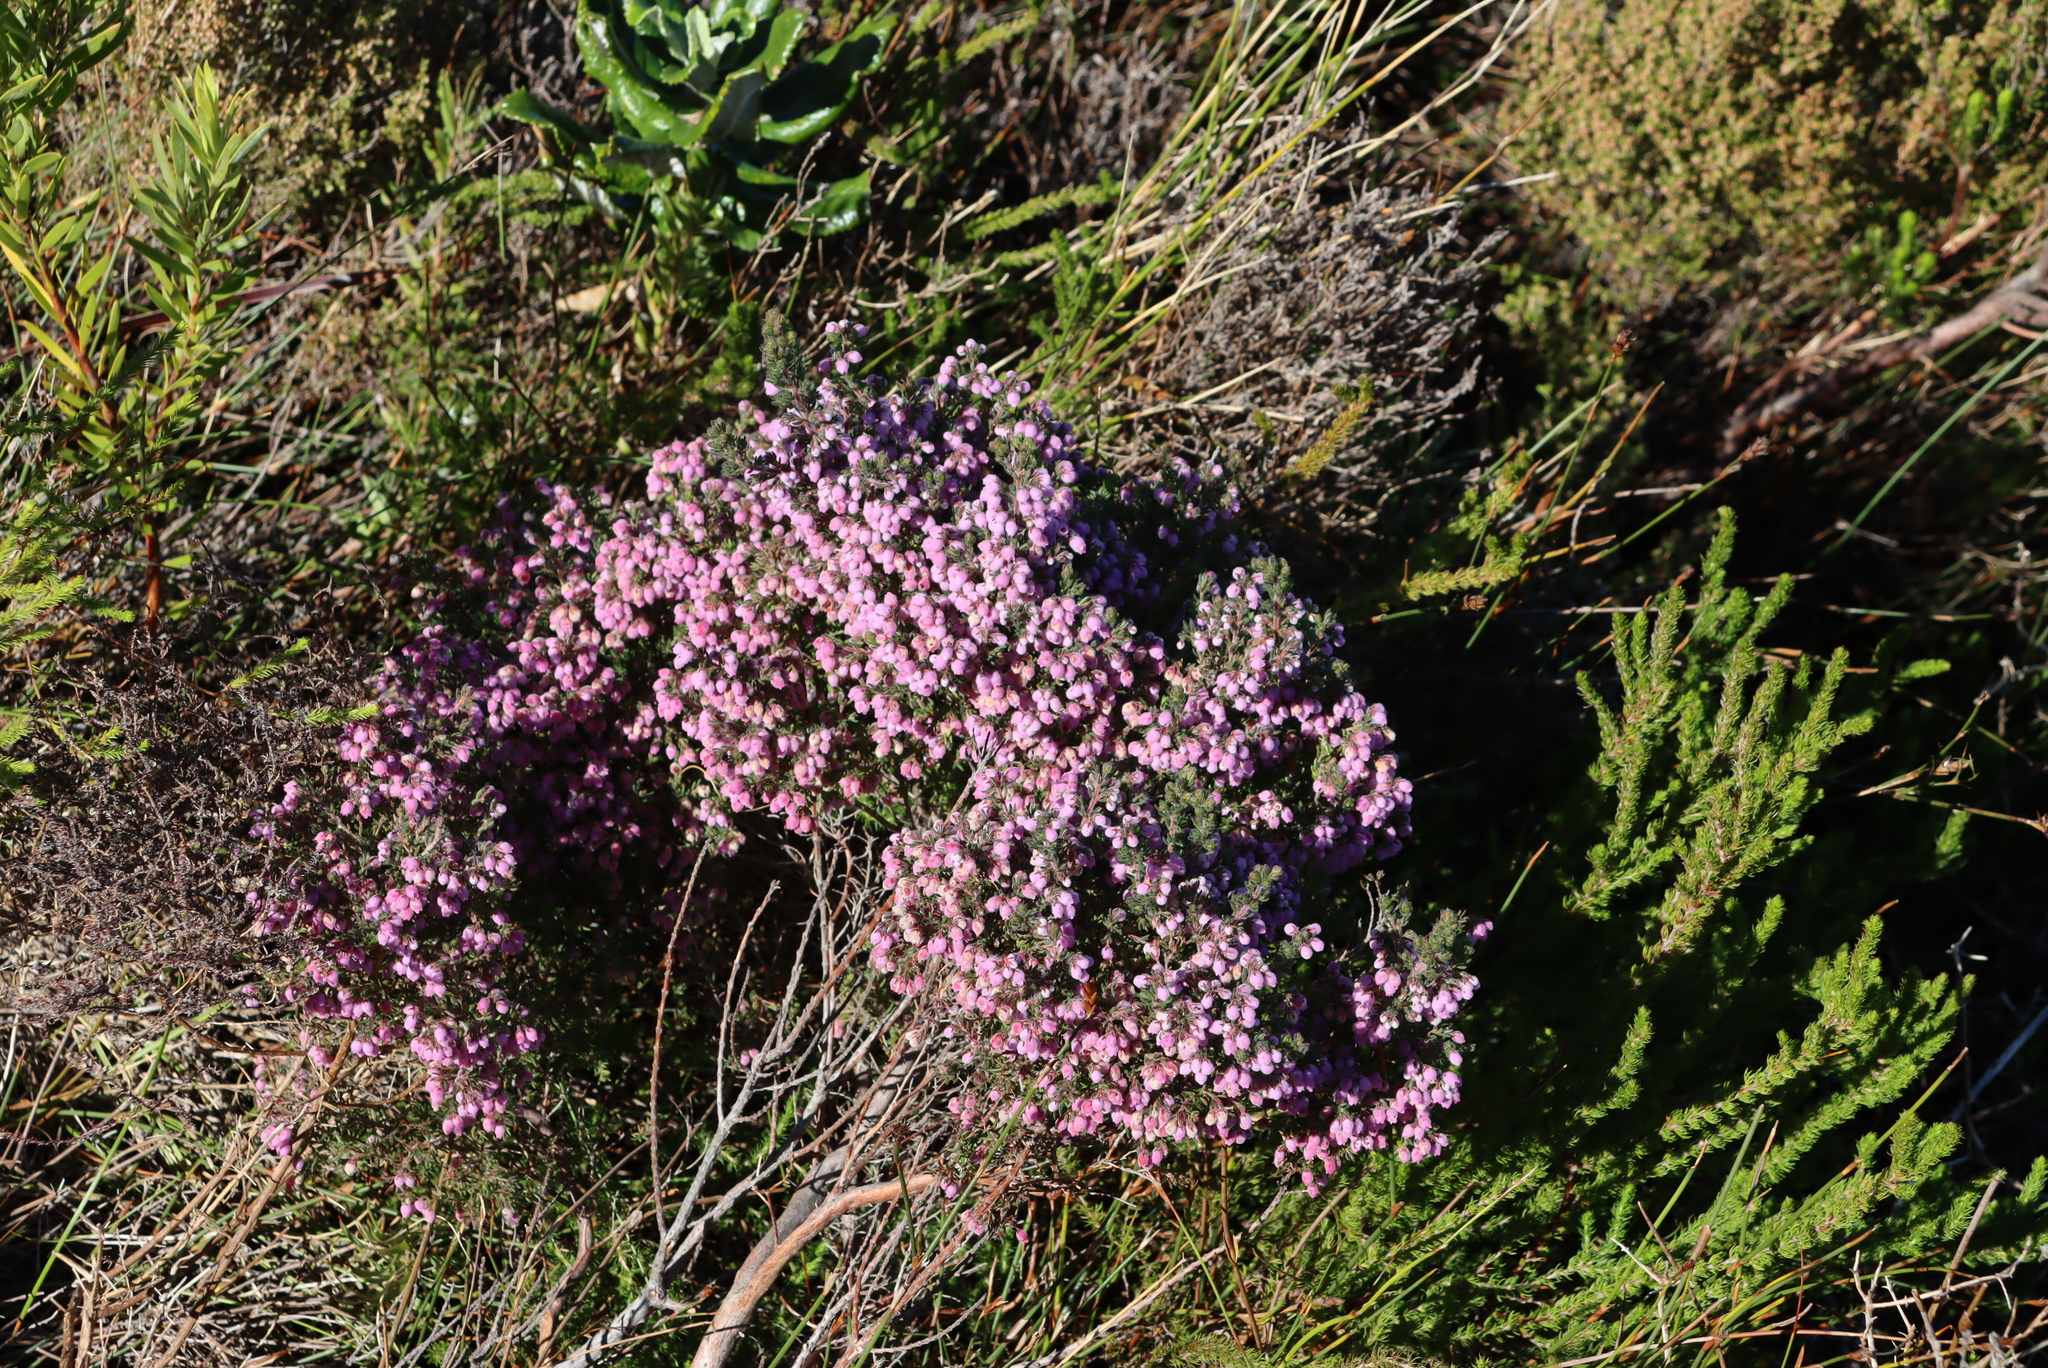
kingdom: Plantae
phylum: Tracheophyta
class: Magnoliopsida
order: Ericales
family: Ericaceae
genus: Erica
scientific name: Erica hirtiflora
